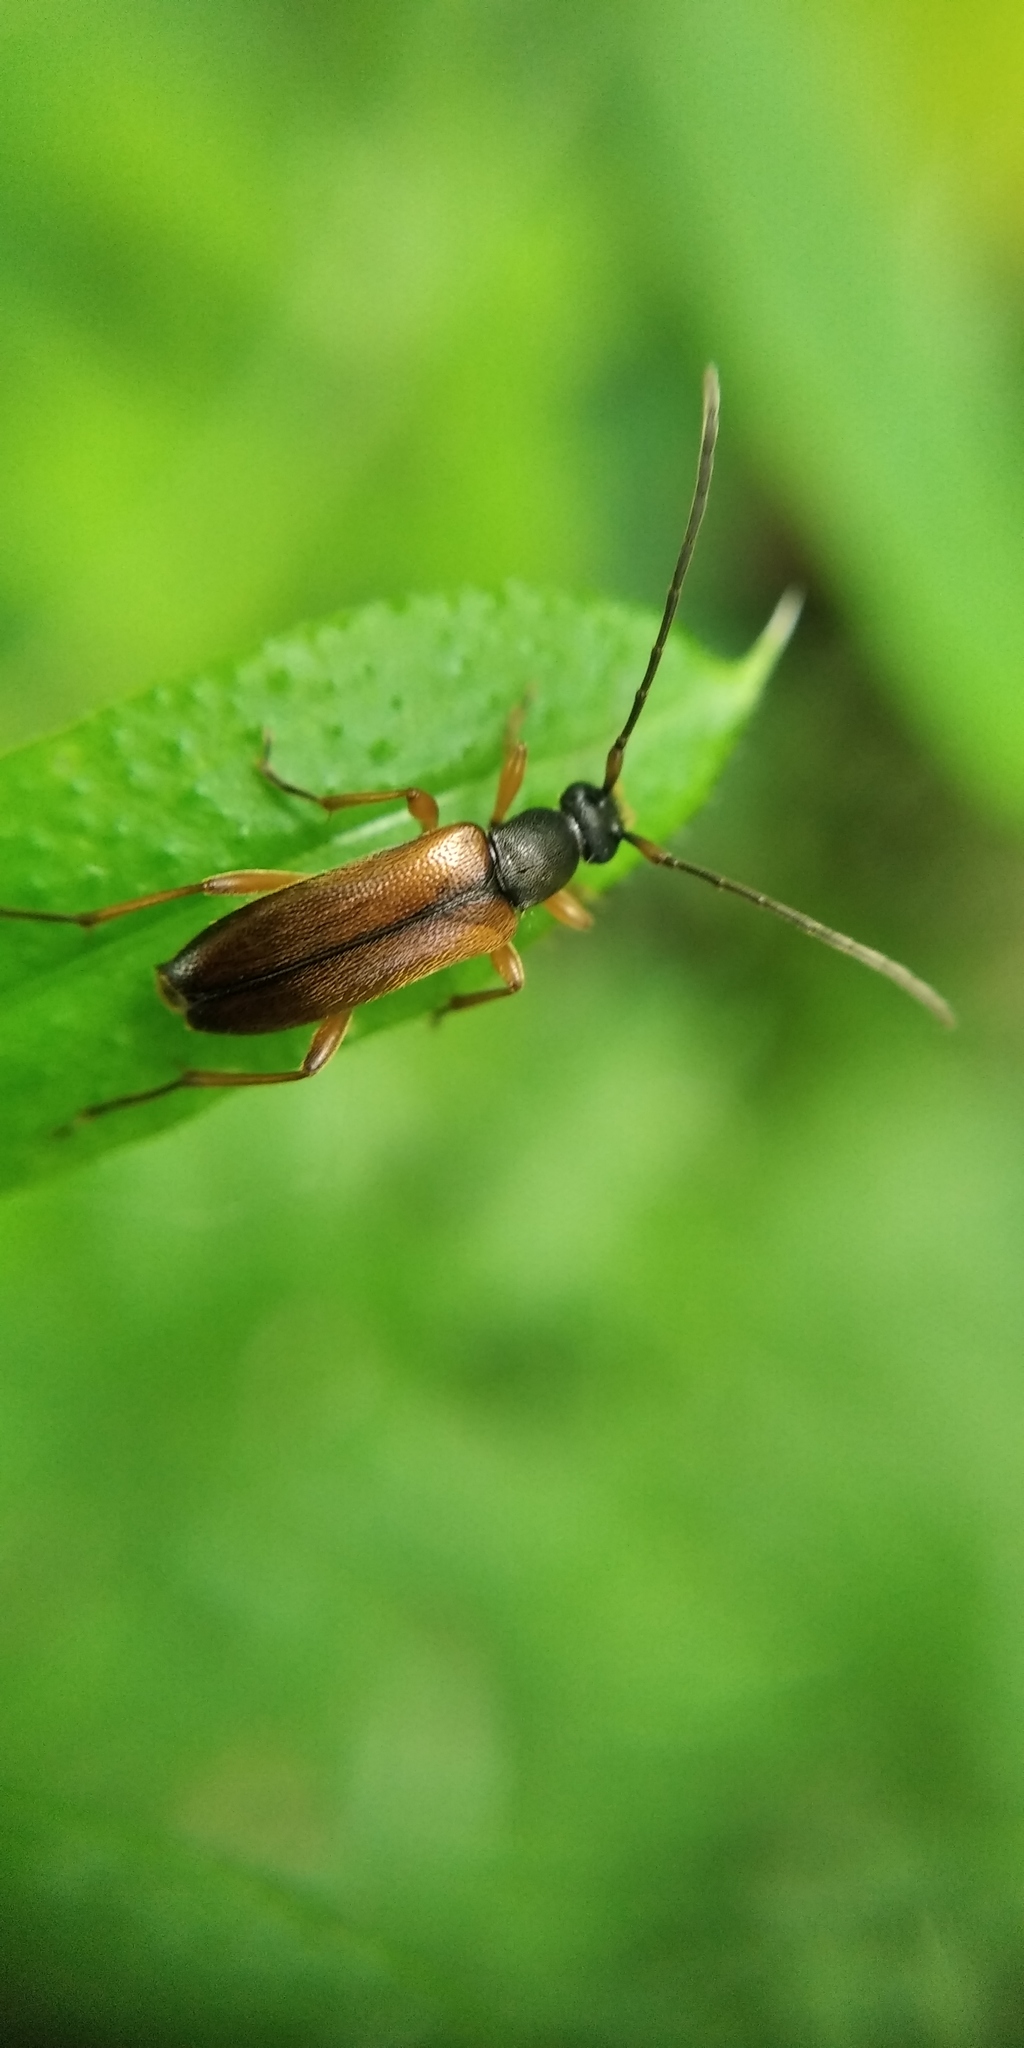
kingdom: Animalia
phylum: Arthropoda
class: Insecta
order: Coleoptera
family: Cerambycidae
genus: Alosterna
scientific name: Alosterna tabacicolor
